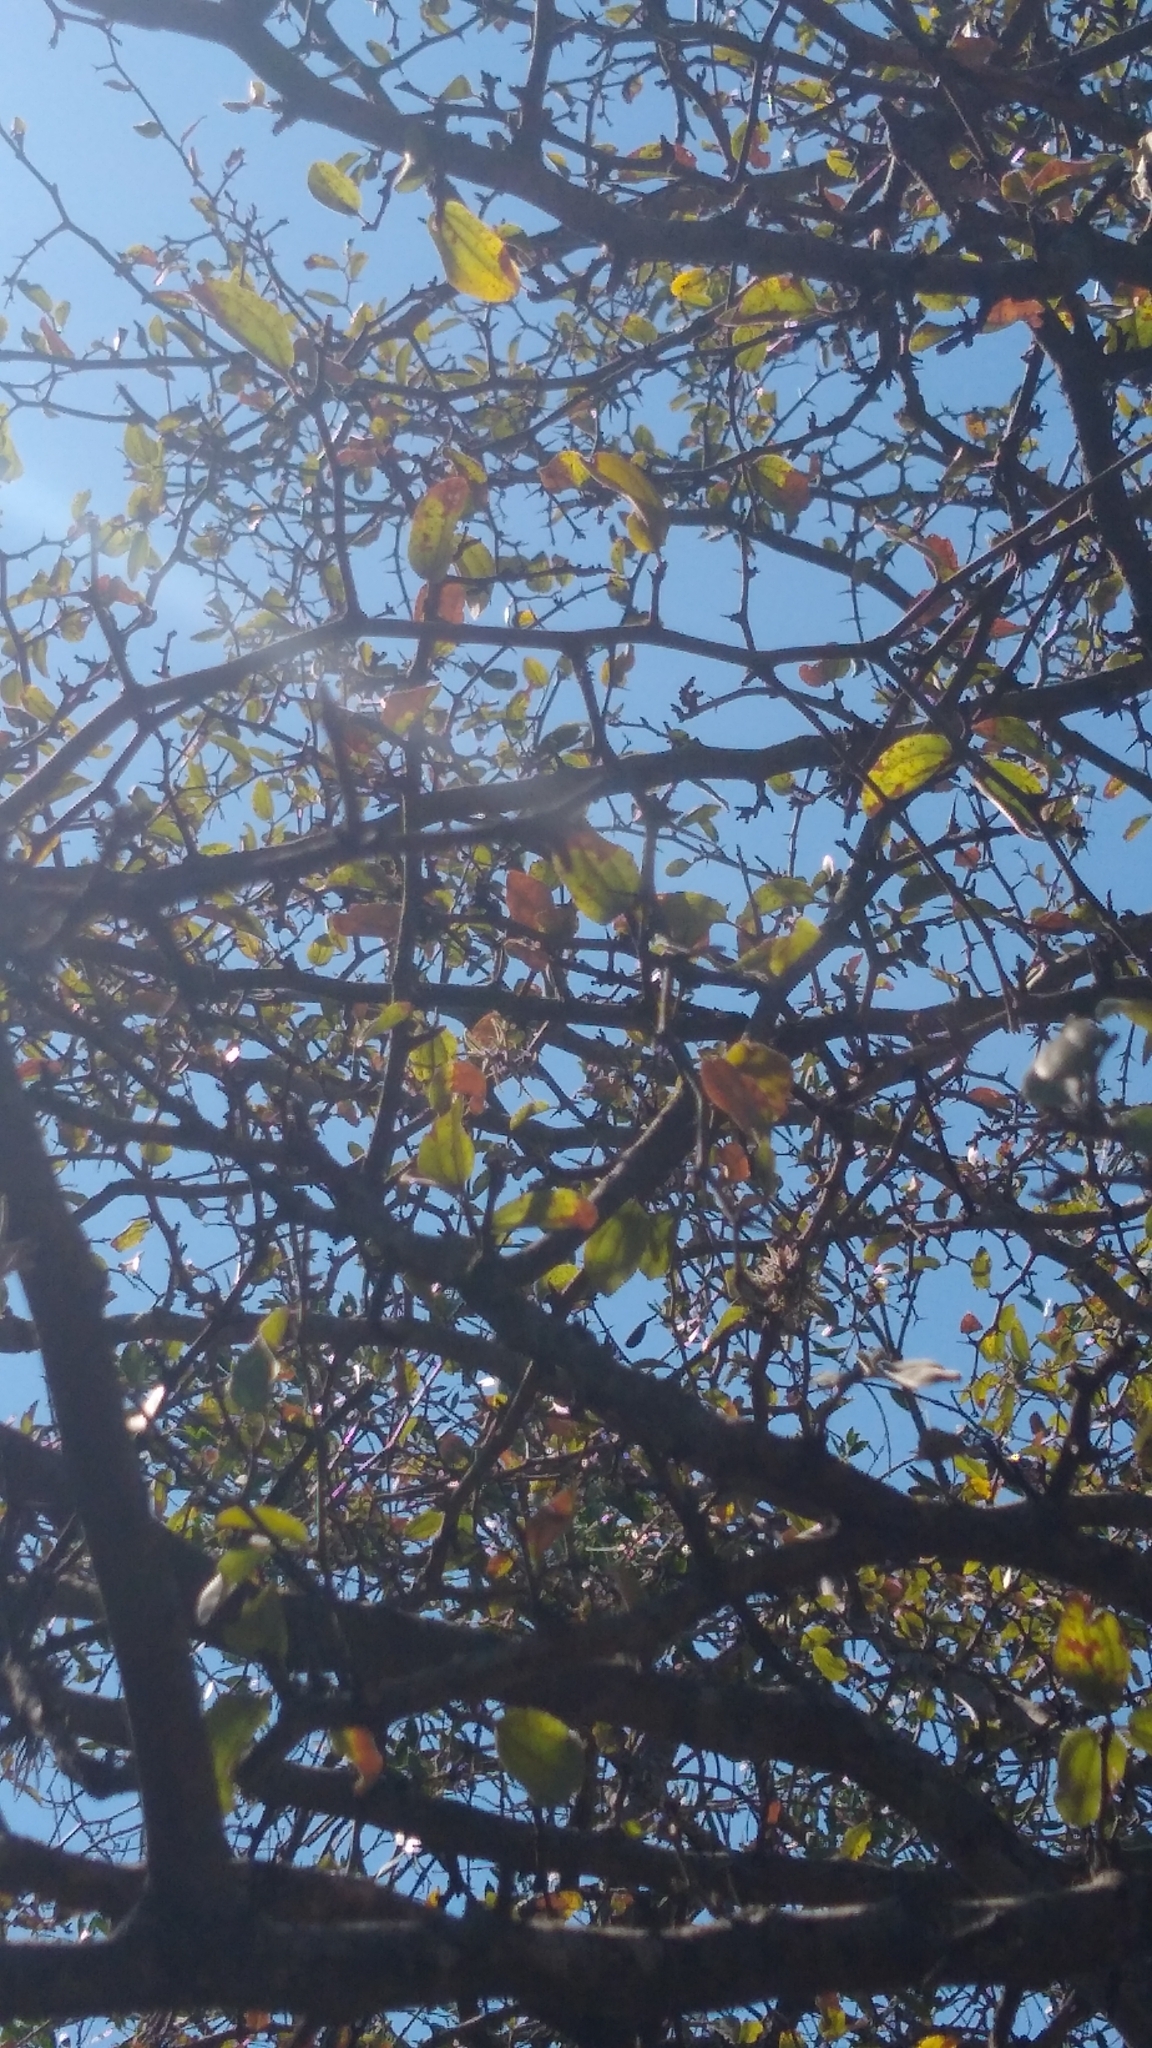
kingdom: Plantae
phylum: Tracheophyta
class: Magnoliopsida
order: Rosales
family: Rhamnaceae
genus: Sarcomphalus
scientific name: Sarcomphalus mistol
